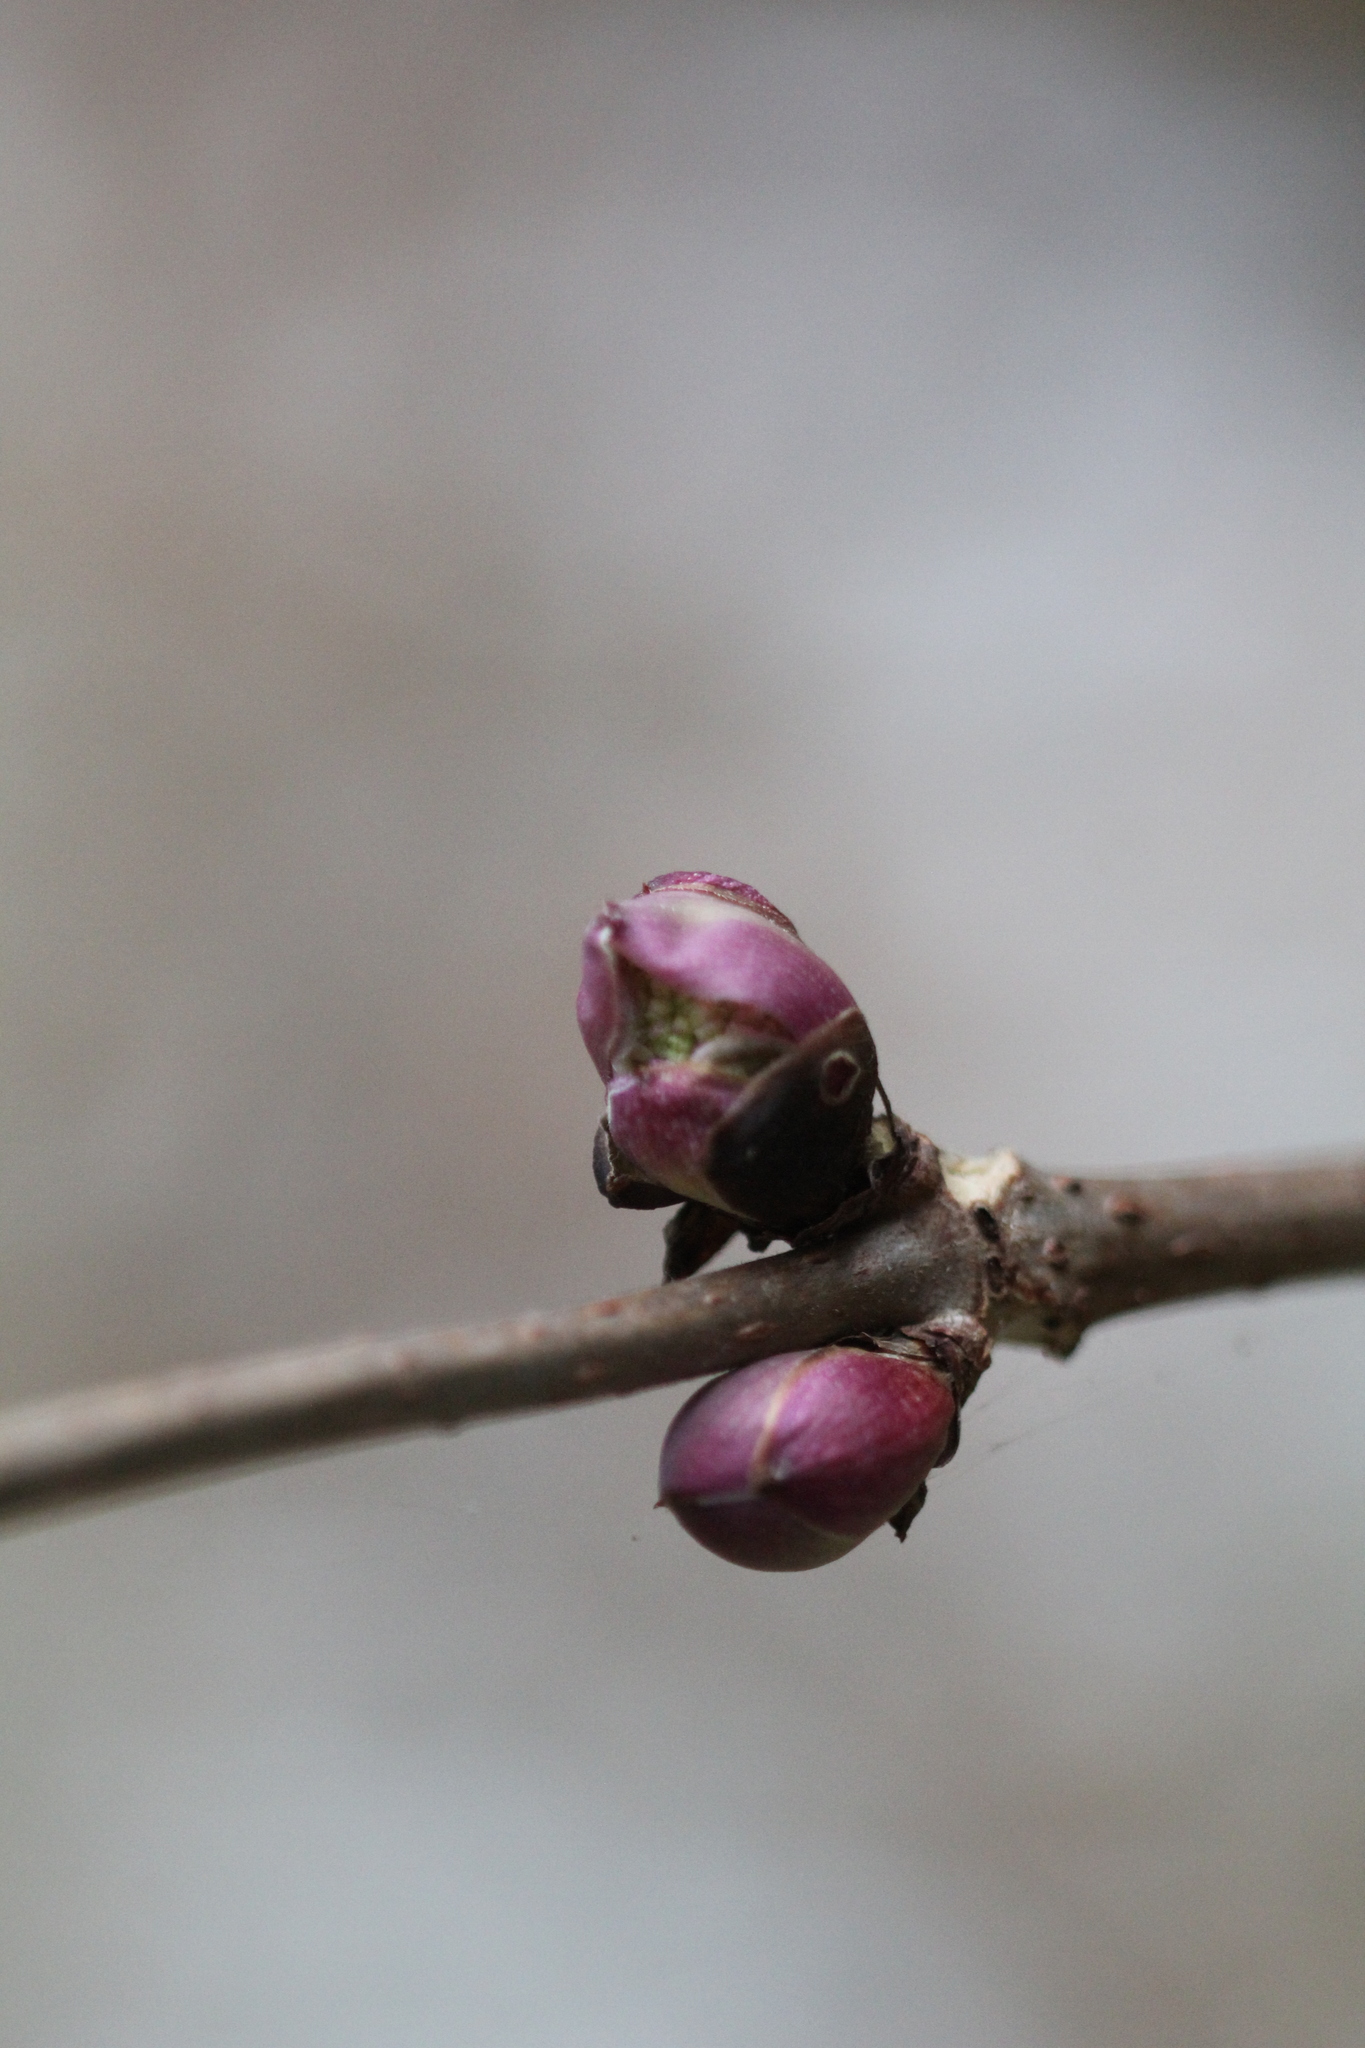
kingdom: Plantae
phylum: Tracheophyta
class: Magnoliopsida
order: Dipsacales
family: Viburnaceae
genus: Sambucus
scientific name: Sambucus racemosa
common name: Red-berried elder
